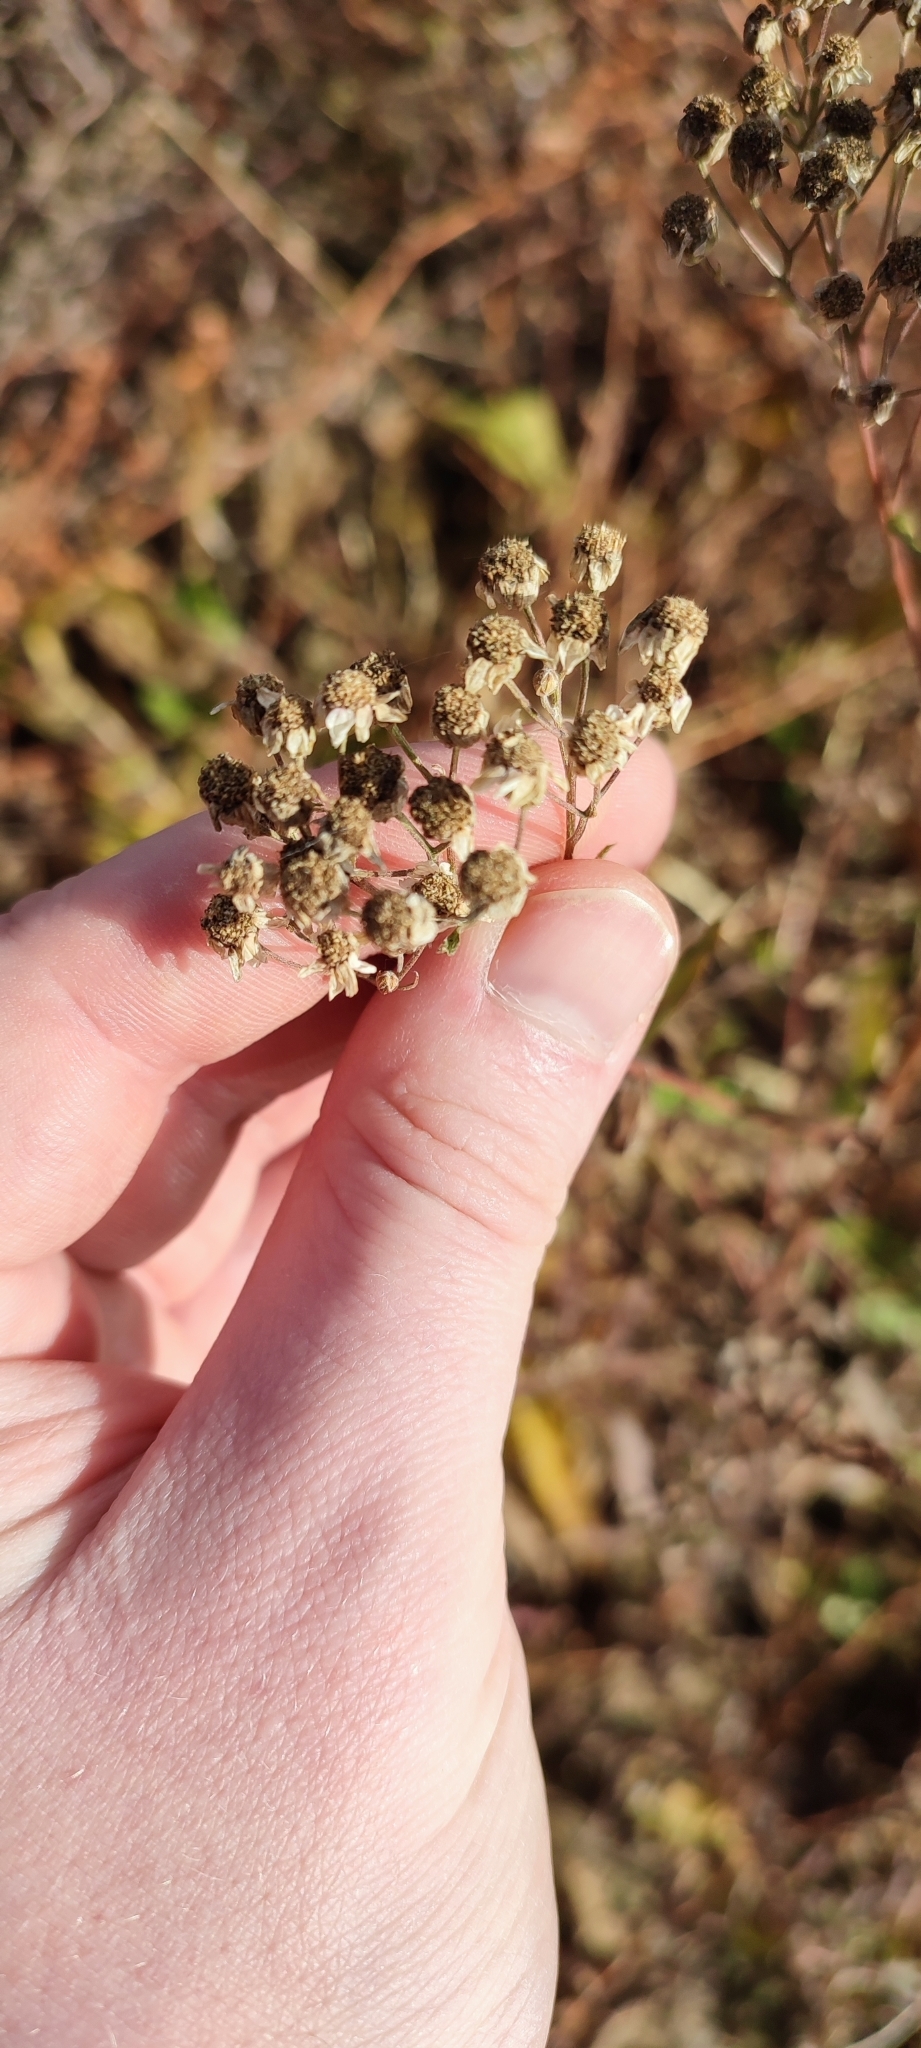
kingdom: Plantae
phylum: Tracheophyta
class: Magnoliopsida
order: Asterales
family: Asteraceae
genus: Achillea
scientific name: Achillea salicifolia
